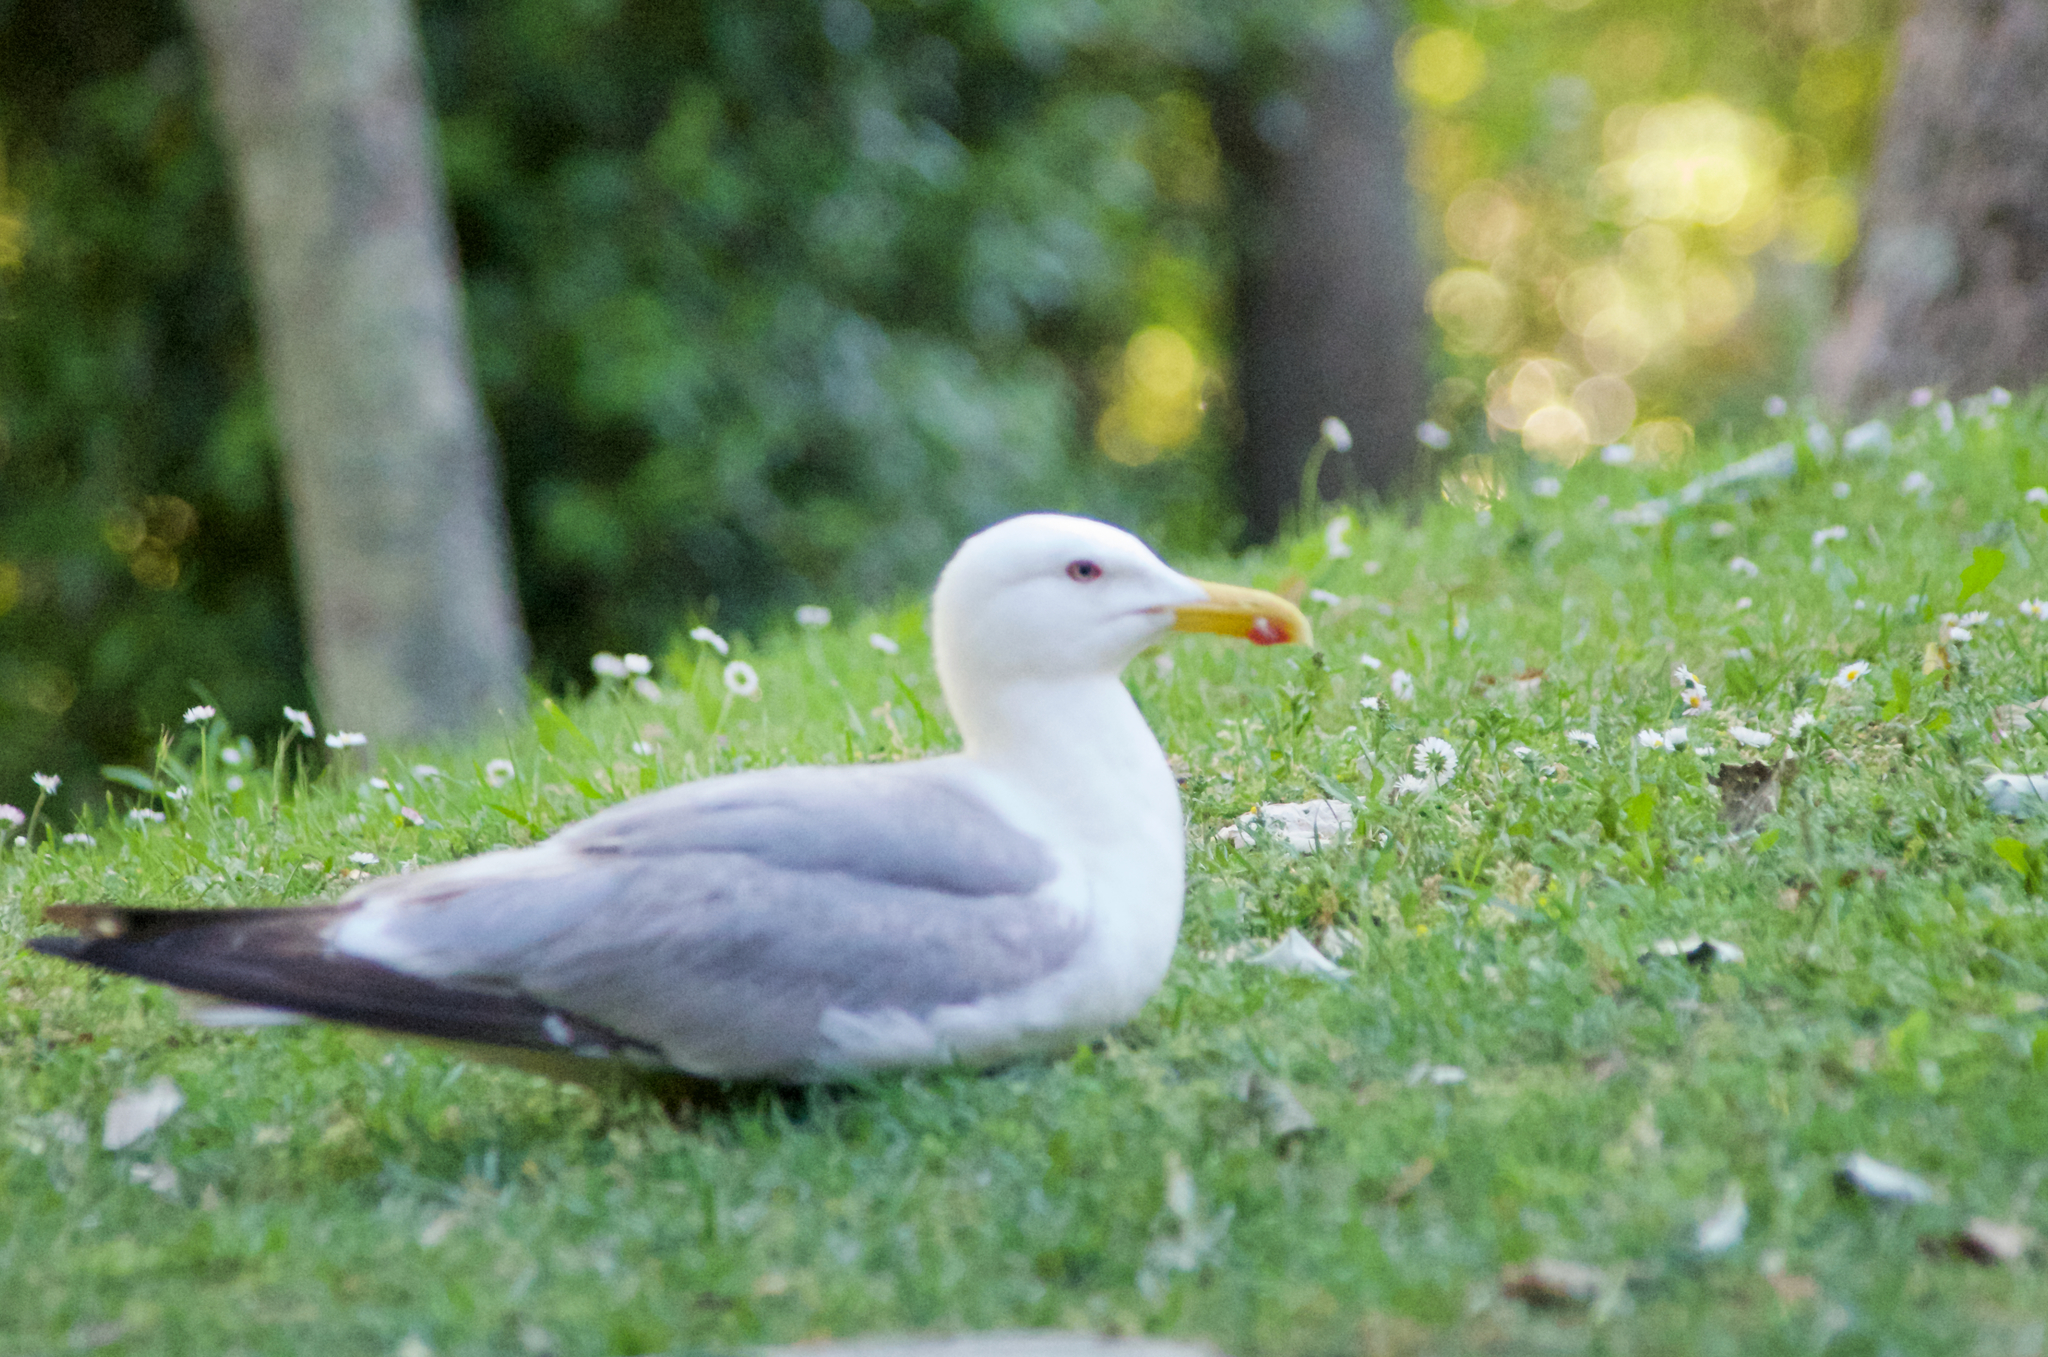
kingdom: Animalia
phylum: Chordata
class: Aves
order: Charadriiformes
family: Laridae
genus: Larus
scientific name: Larus michahellis
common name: Yellow-legged gull
